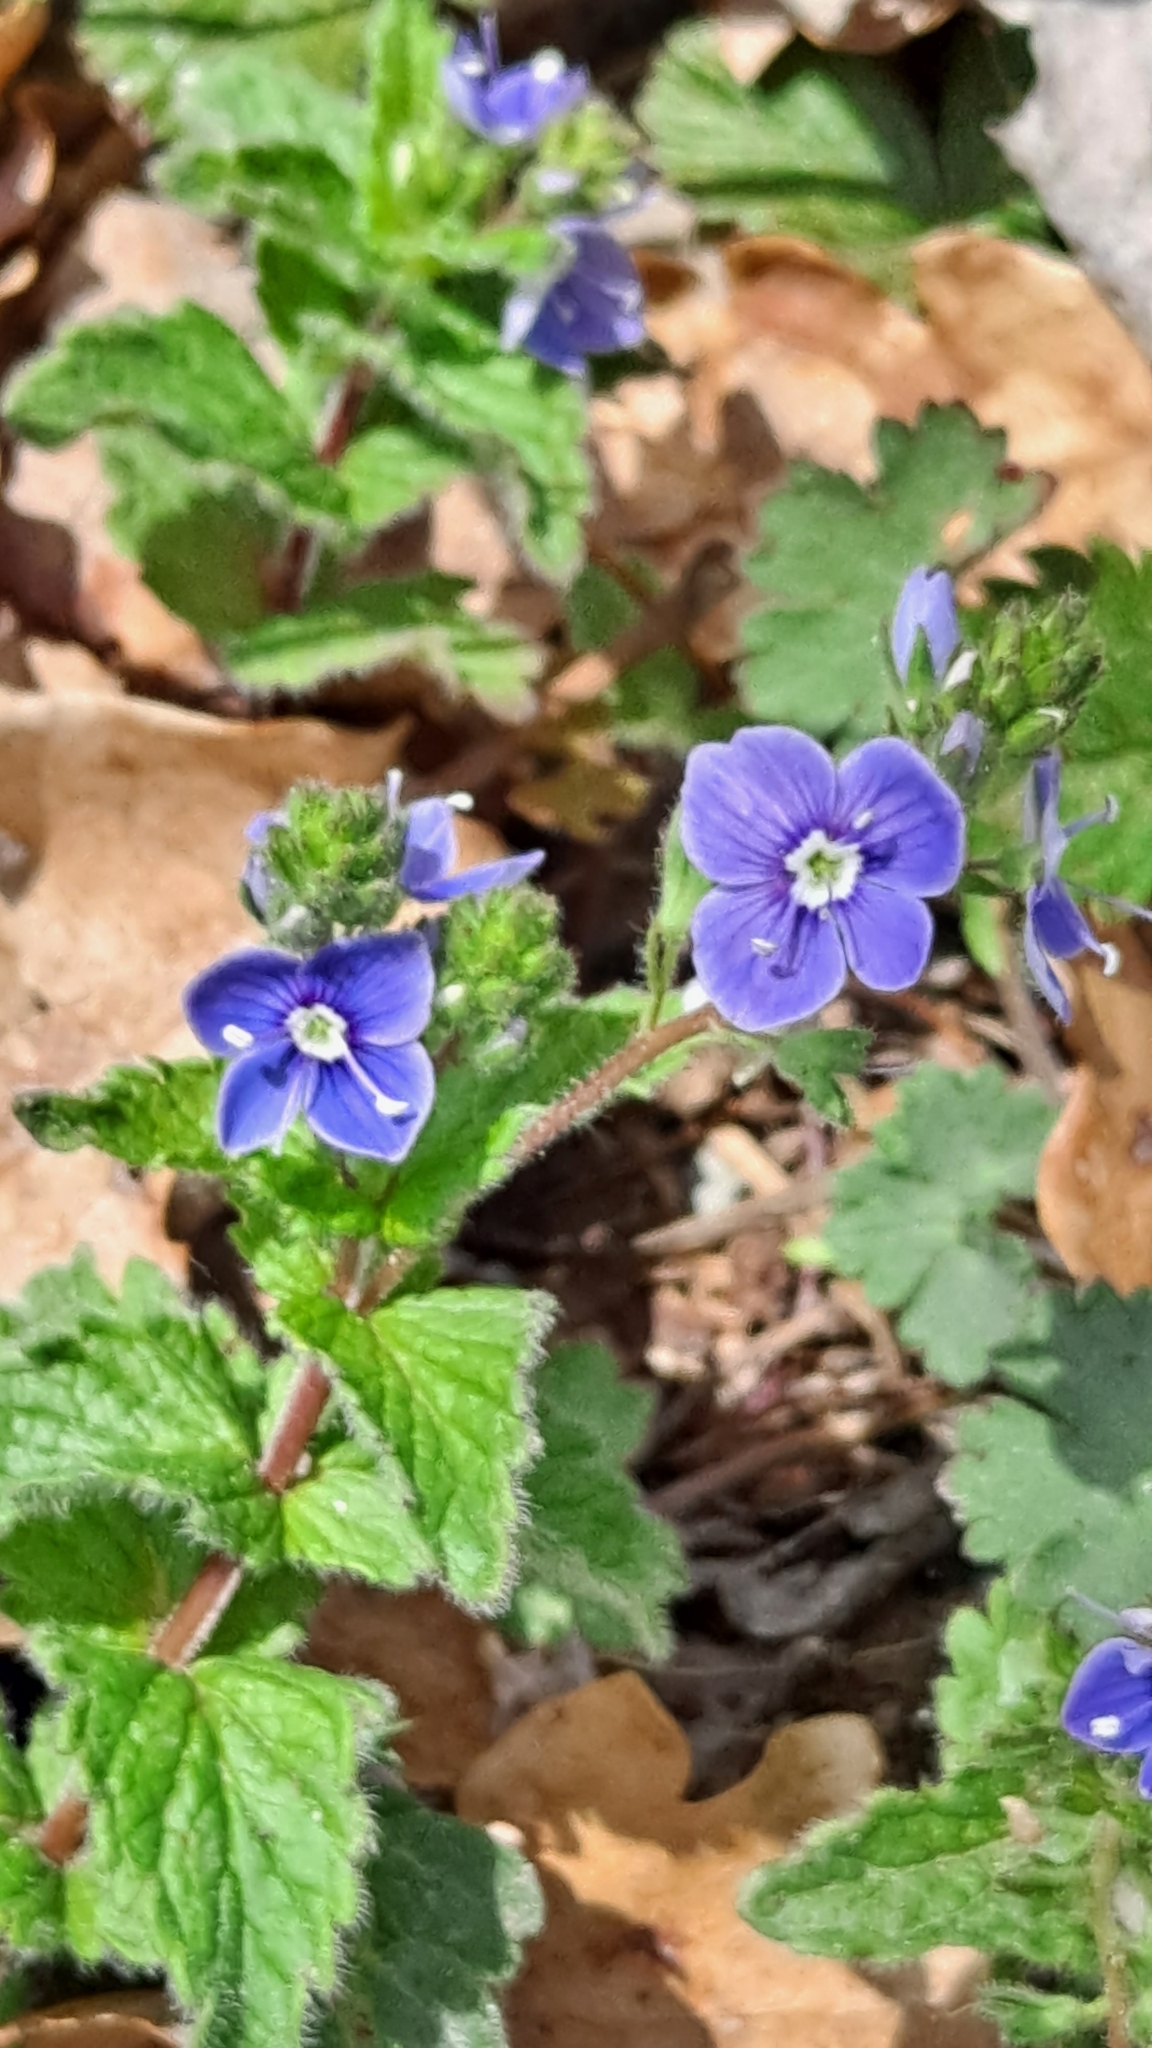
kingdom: Plantae
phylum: Tracheophyta
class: Magnoliopsida
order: Lamiales
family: Plantaginaceae
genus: Veronica
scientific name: Veronica chamaedrys
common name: Germander speedwell
